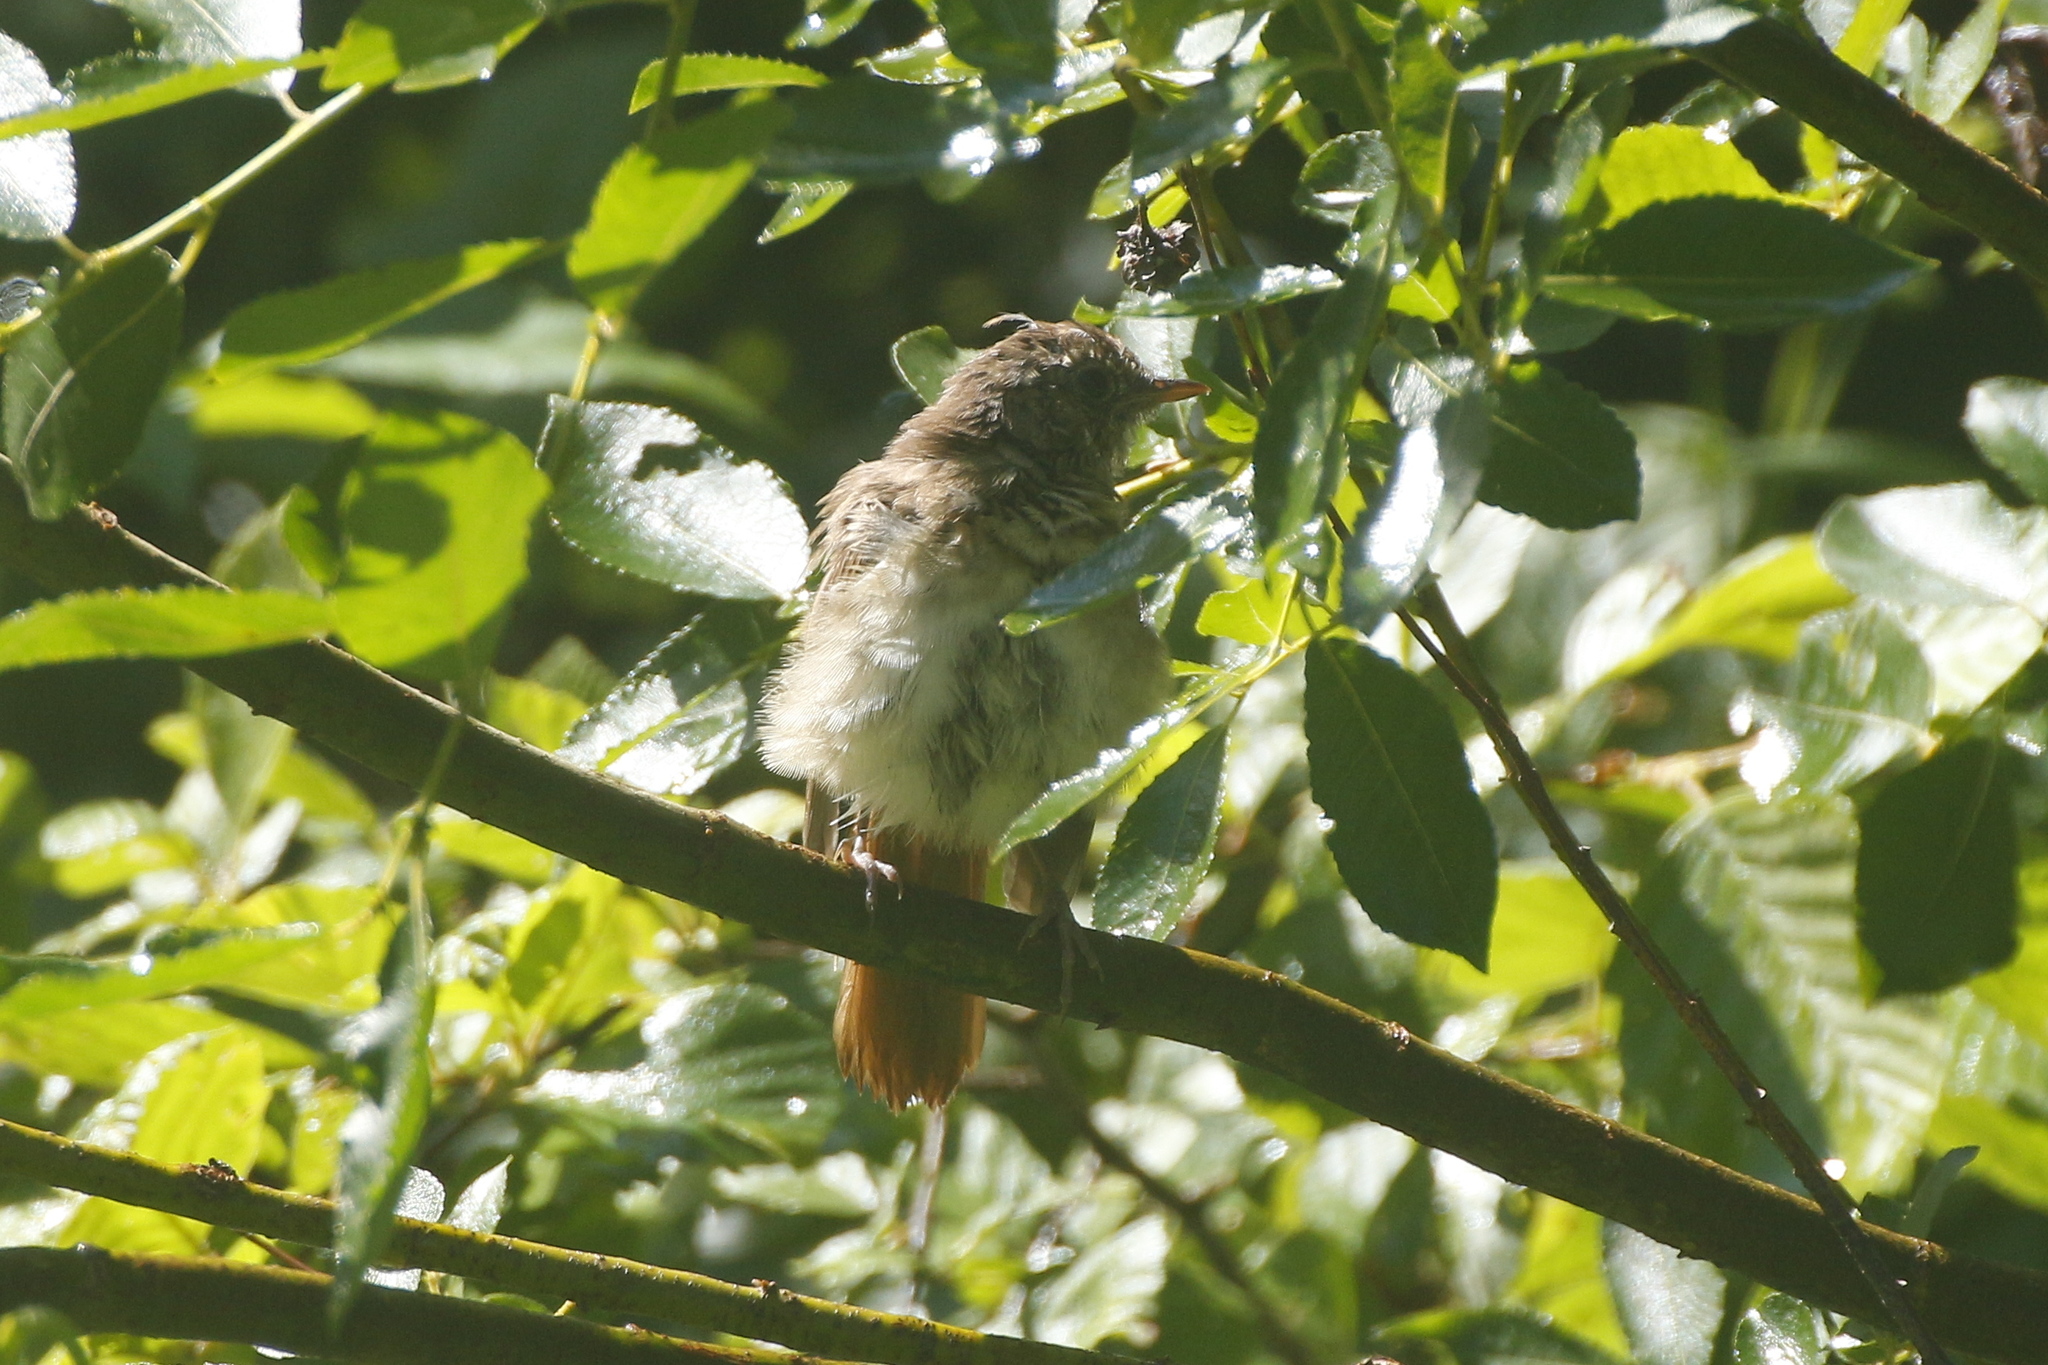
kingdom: Animalia
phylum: Chordata
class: Aves
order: Passeriformes
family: Muscicapidae
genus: Luscinia
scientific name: Luscinia luscinia
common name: Thrush nightingale
